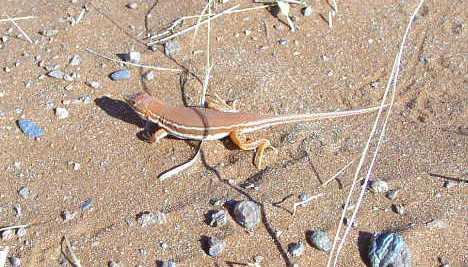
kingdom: Animalia
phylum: Chordata
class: Squamata
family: Lacertidae
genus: Meroles
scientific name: Meroles cuneirostris
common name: Wedge-snouted desert lizard
